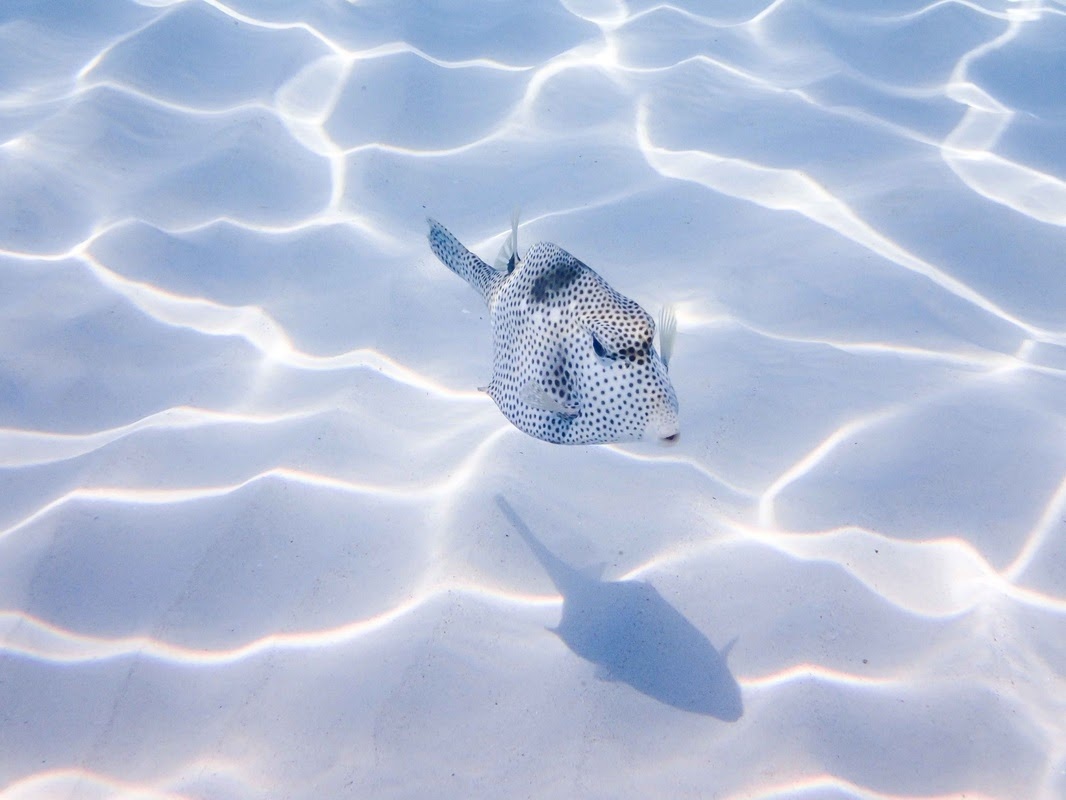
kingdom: Animalia
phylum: Chordata
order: Tetraodontiformes
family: Ostraciidae
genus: Lactophrys
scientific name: Lactophrys bicaudalis
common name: Spotted trunkfish
